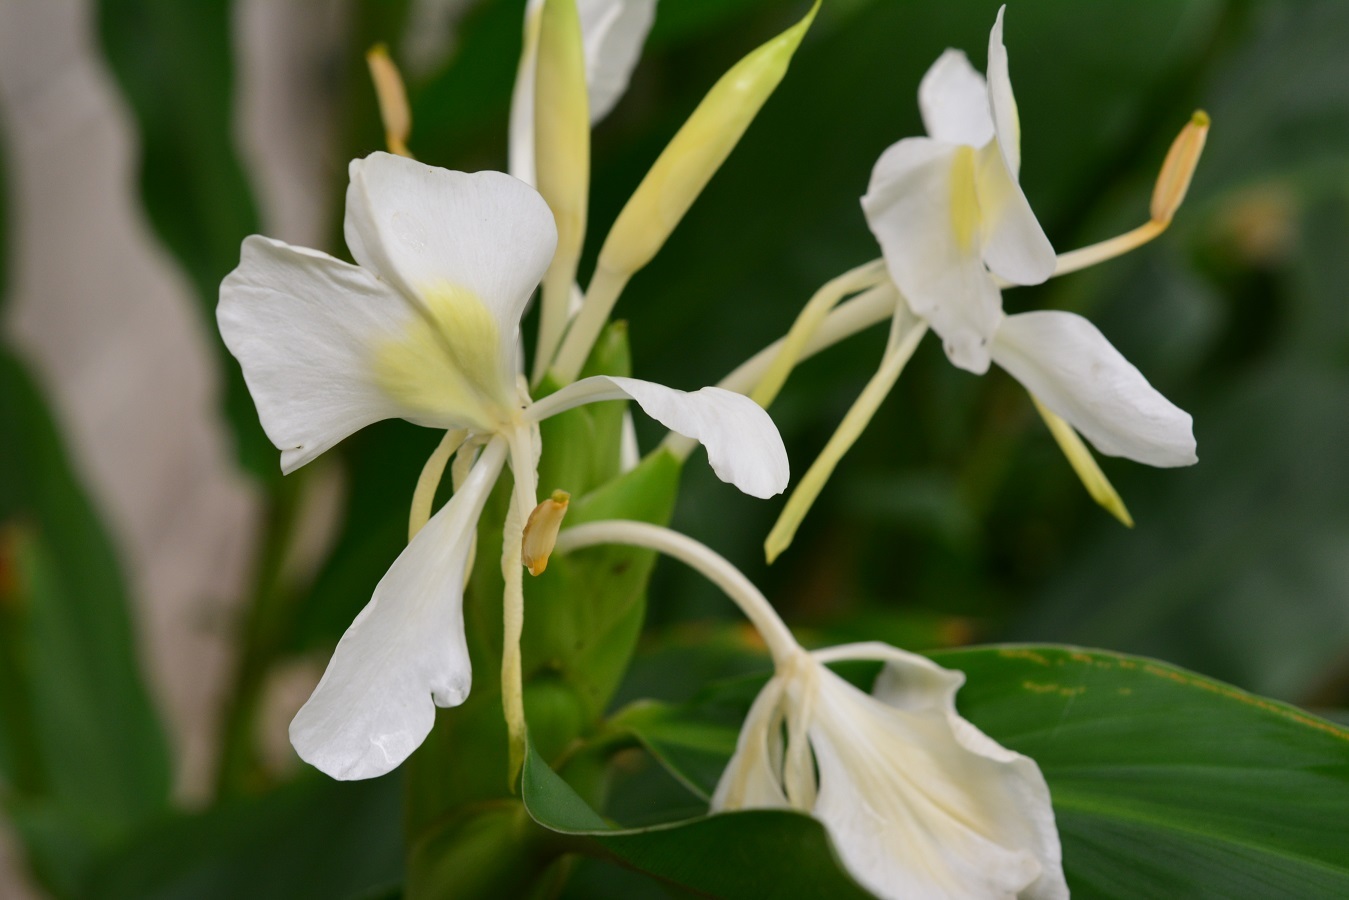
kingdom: Plantae
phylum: Tracheophyta
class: Liliopsida
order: Zingiberales
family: Zingiberaceae
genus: Hedychium
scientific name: Hedychium coronarium
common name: White garland-lily
